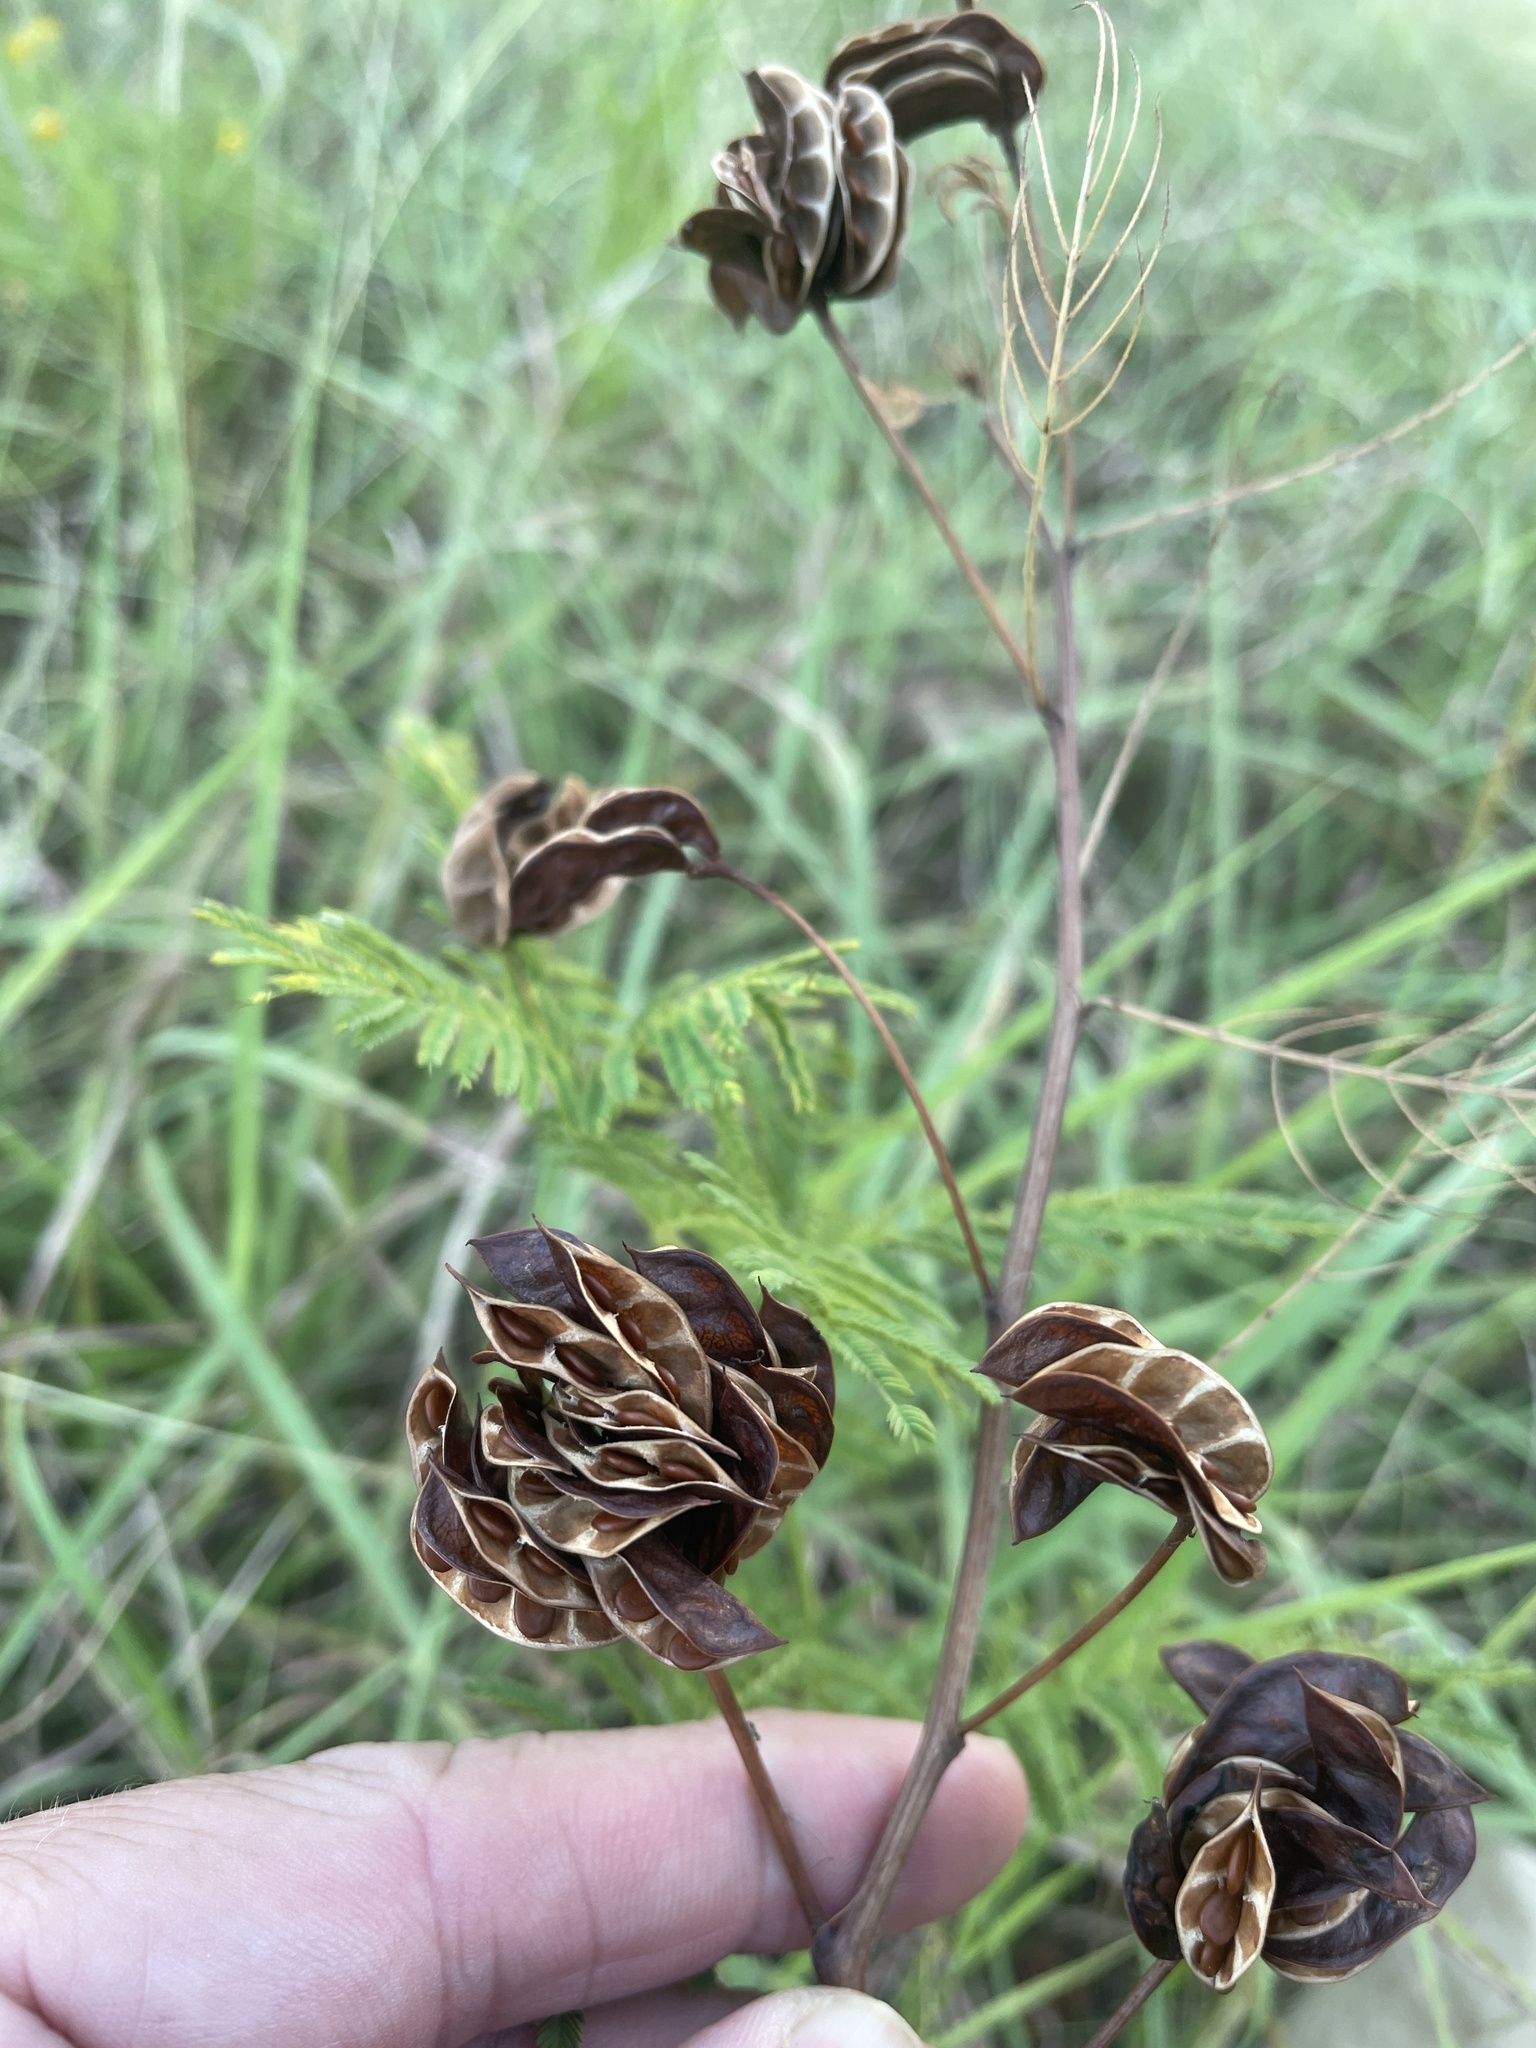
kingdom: Plantae
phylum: Tracheophyta
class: Magnoliopsida
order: Fabales
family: Fabaceae
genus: Desmanthus
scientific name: Desmanthus illinoensis
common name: Illinois bundle-flower
